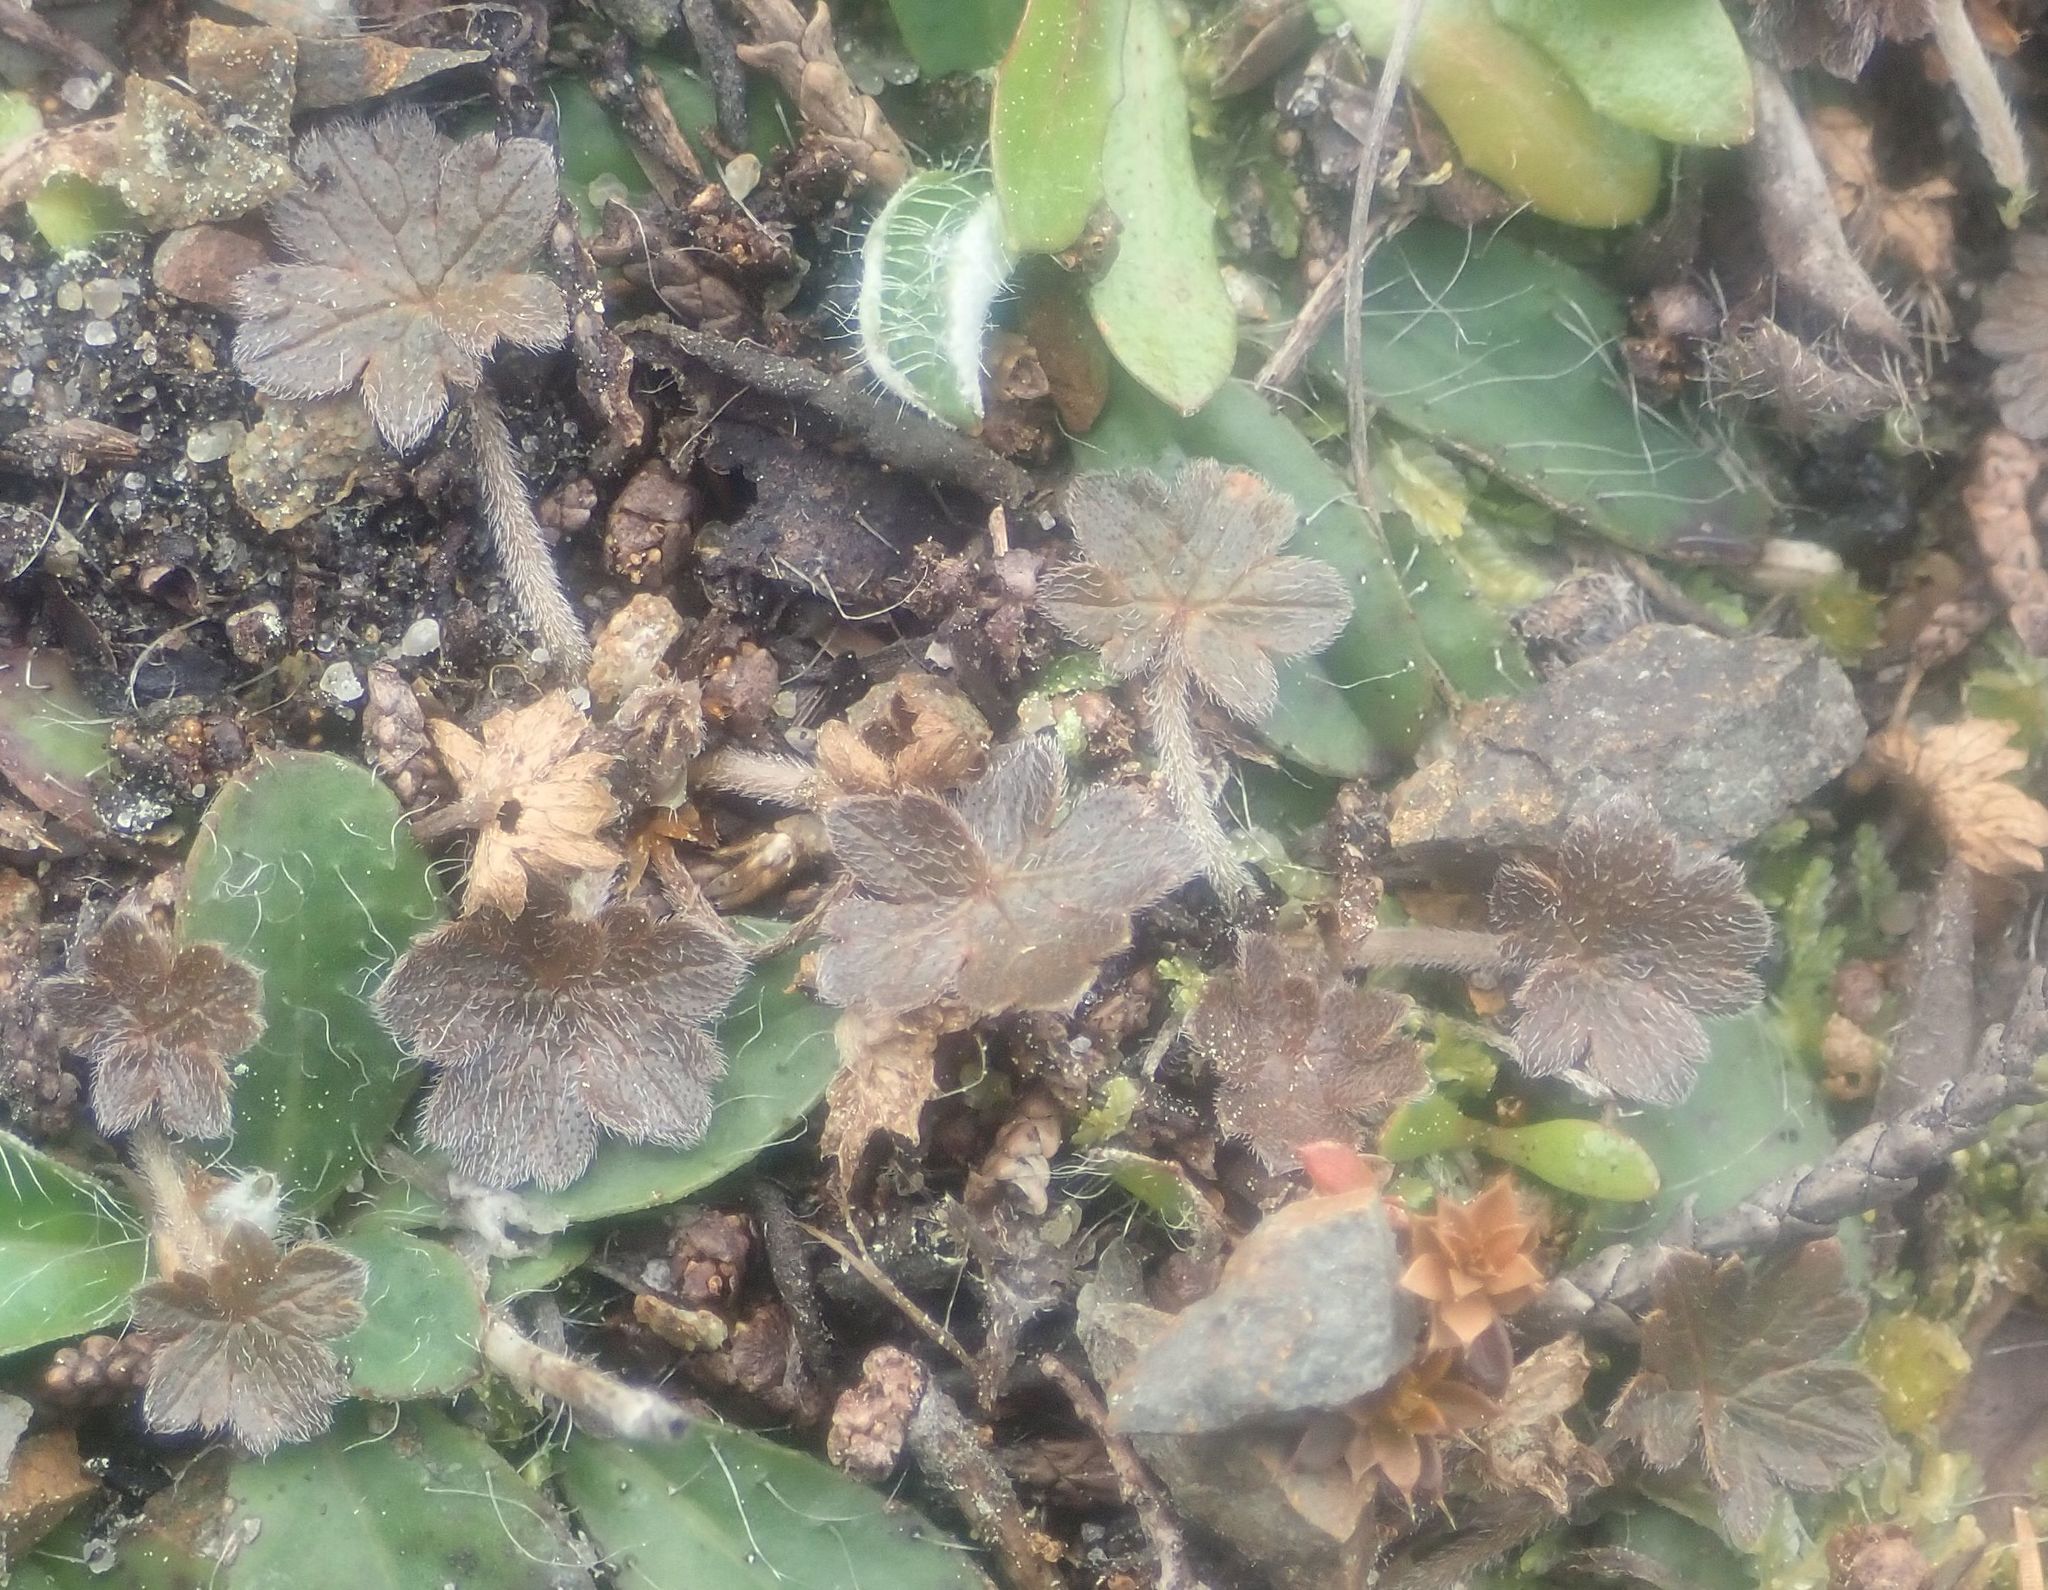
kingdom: Plantae
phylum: Tracheophyta
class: Magnoliopsida
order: Geraniales
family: Geraniaceae
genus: Geranium
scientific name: Geranium brevicaule
